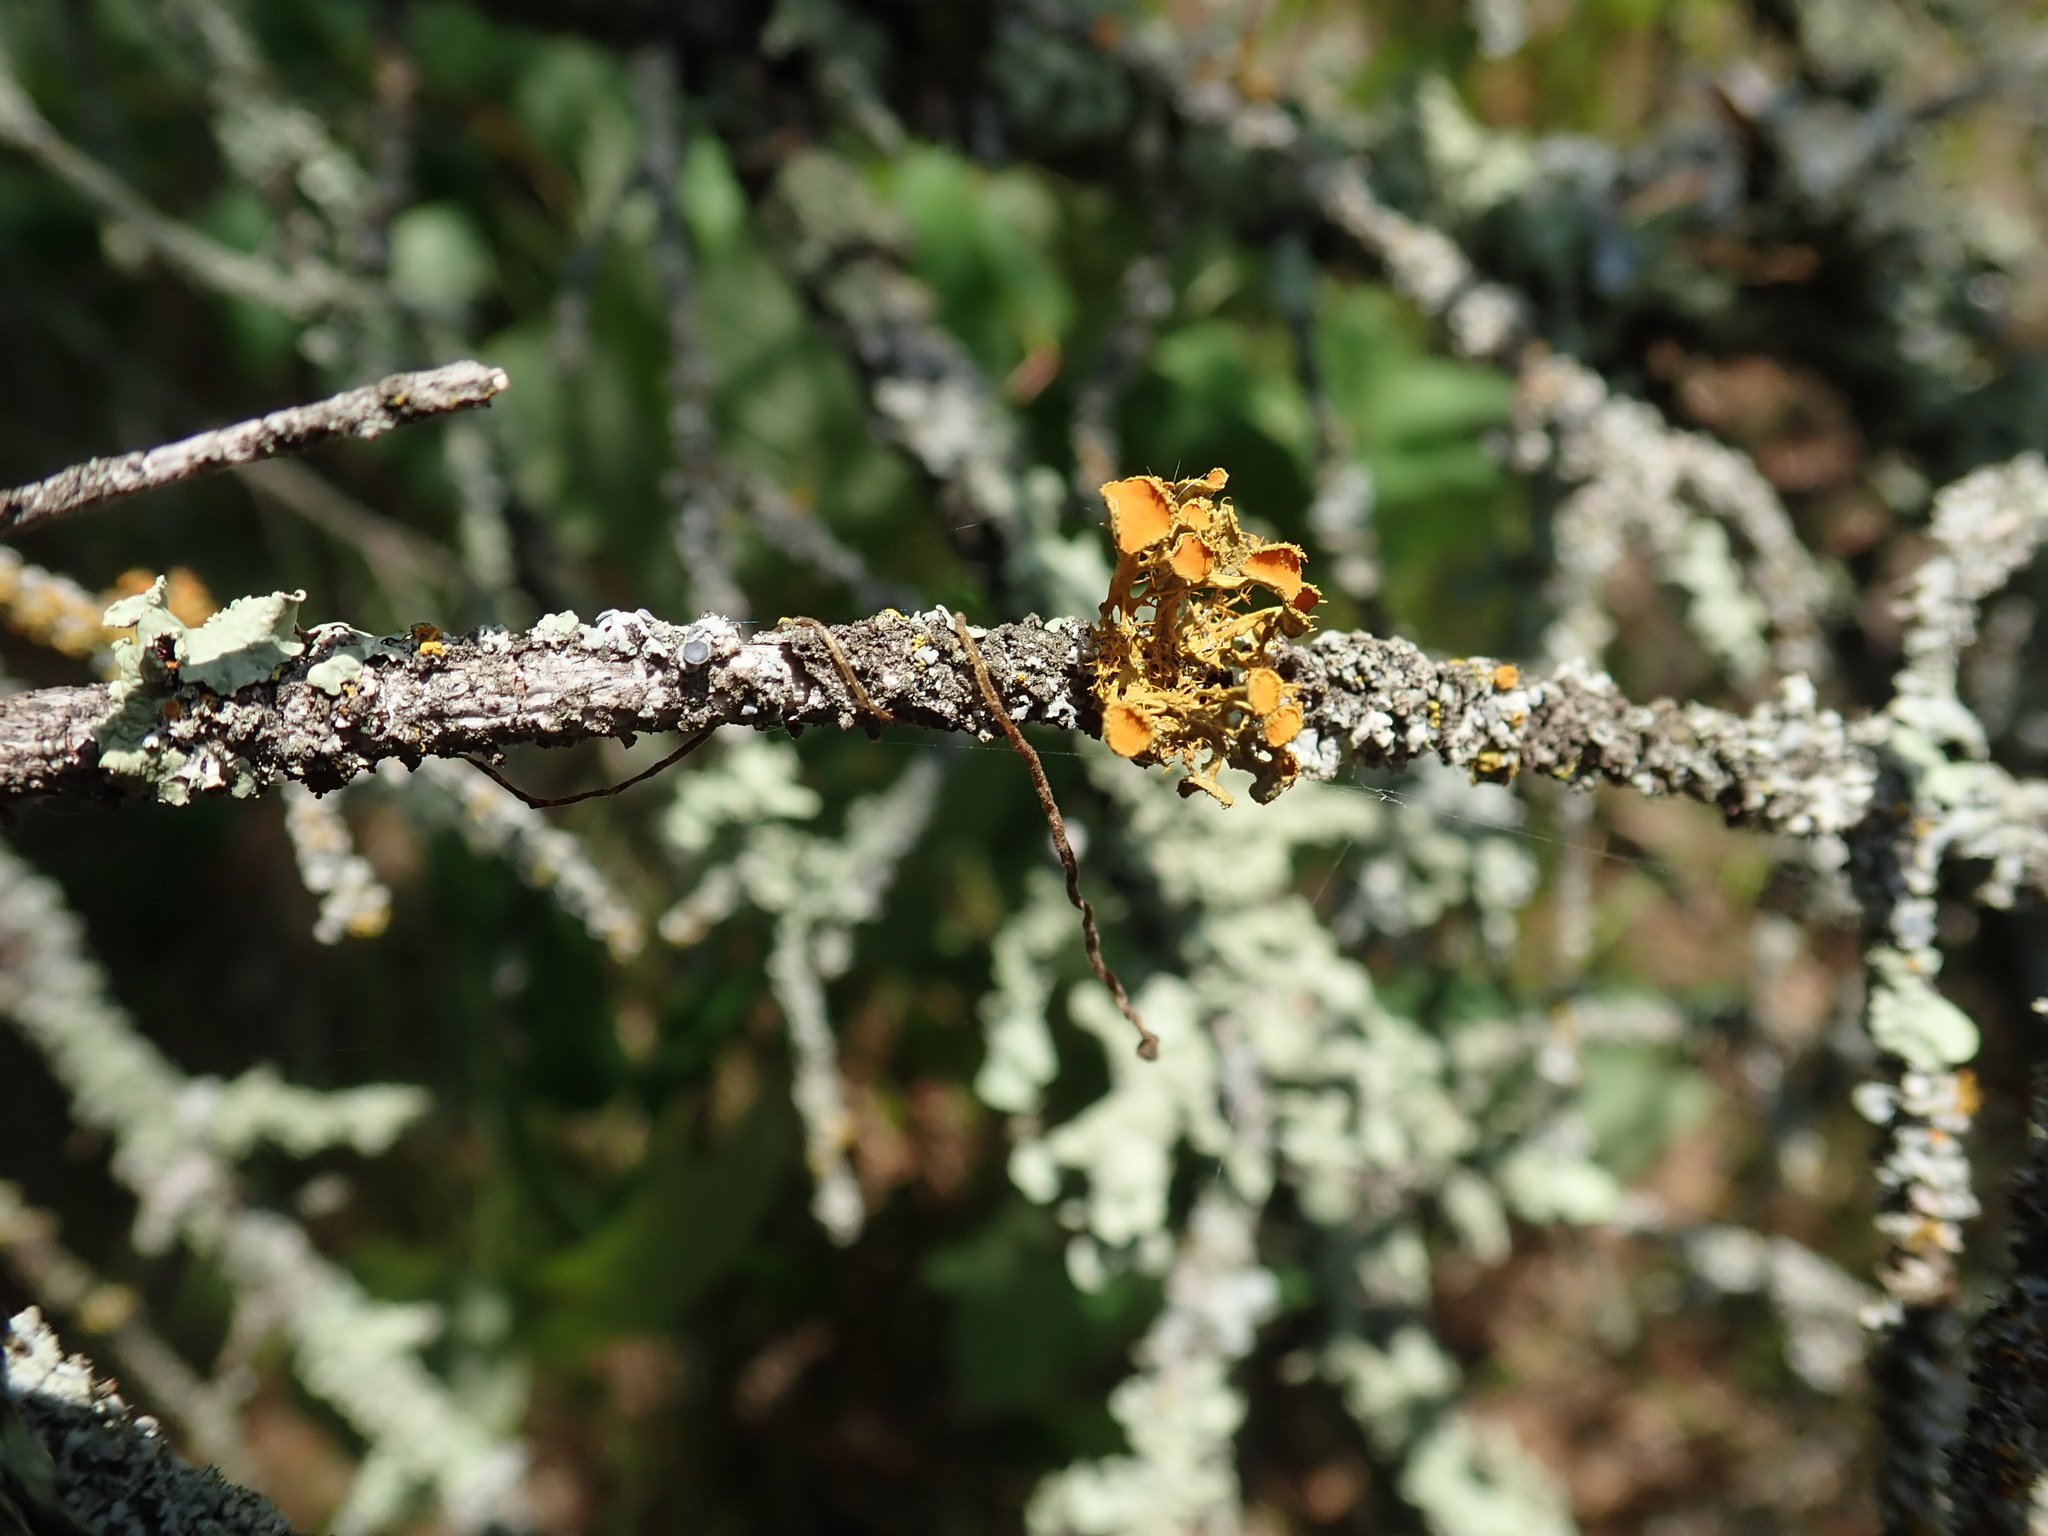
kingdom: Fungi
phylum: Ascomycota
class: Lecanoromycetes
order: Teloschistales
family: Teloschistaceae
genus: Niorma
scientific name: Niorma chrysophthalma
